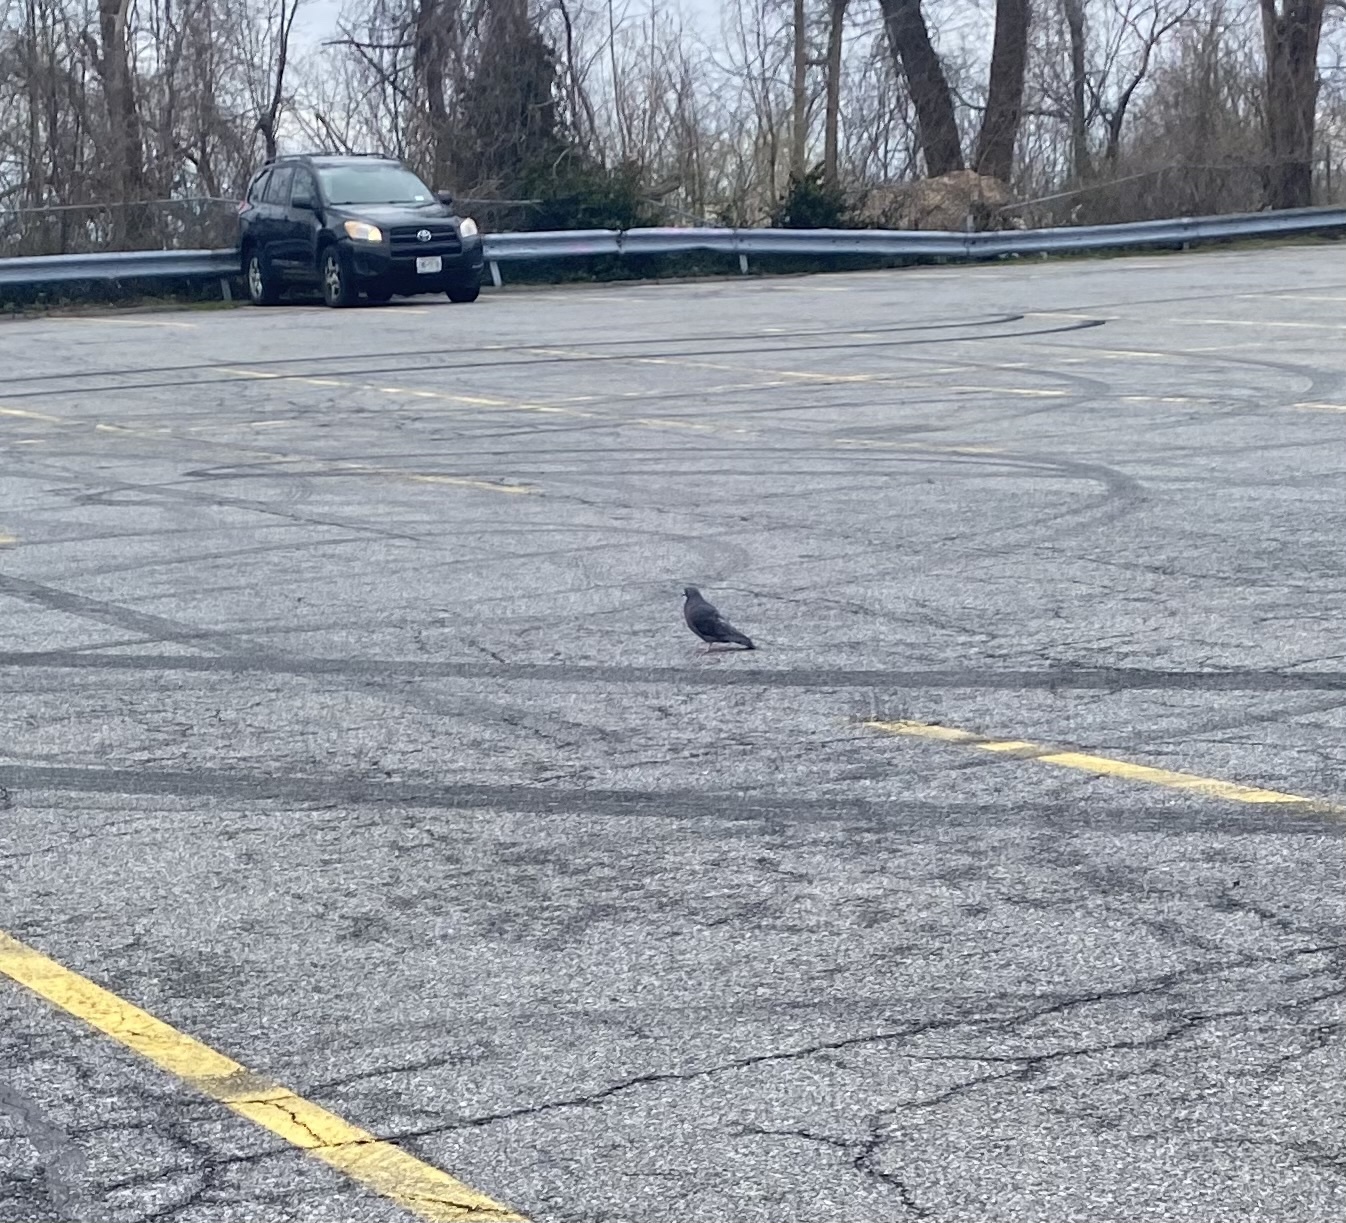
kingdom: Animalia
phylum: Chordata
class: Aves
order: Columbiformes
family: Columbidae
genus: Columba
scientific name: Columba livia
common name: Rock pigeon
